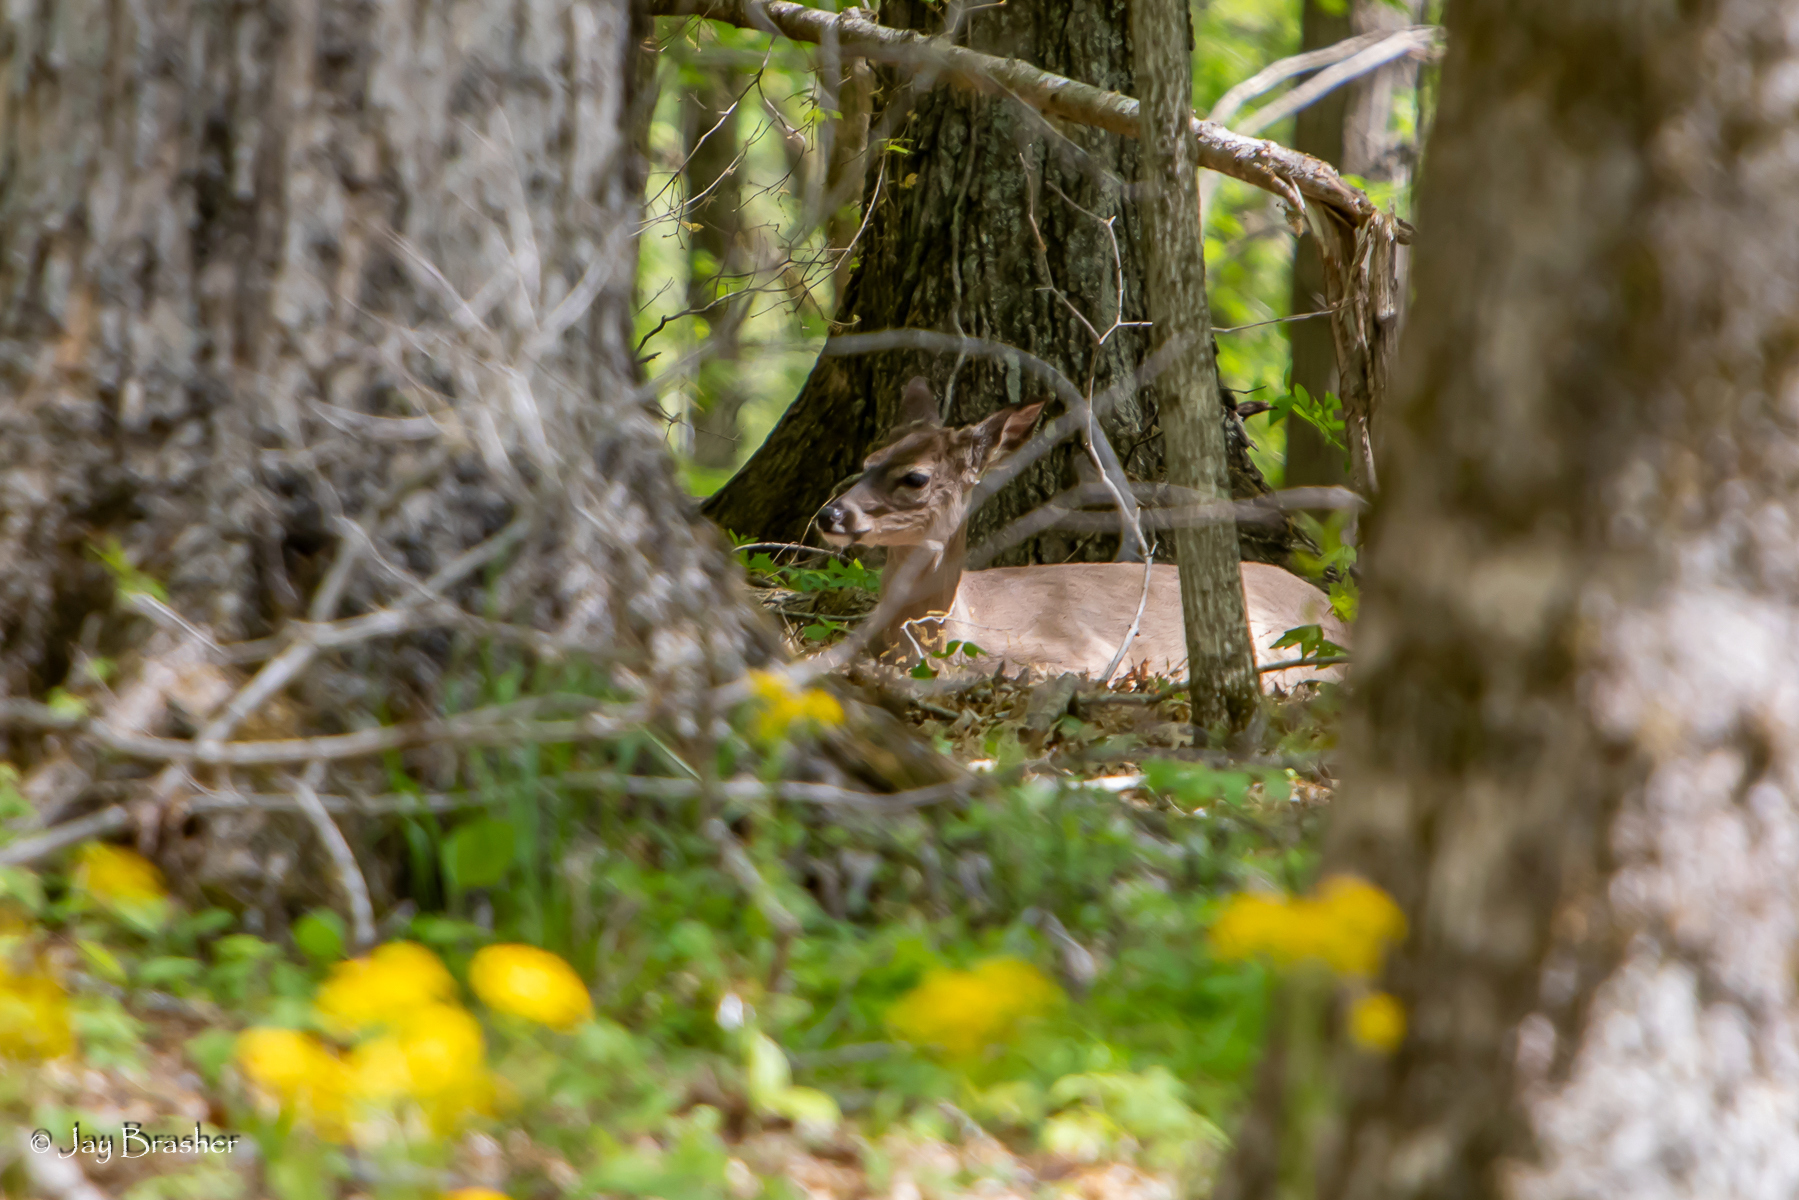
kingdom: Animalia
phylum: Chordata
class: Mammalia
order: Artiodactyla
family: Cervidae
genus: Odocoileus
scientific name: Odocoileus virginianus
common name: White-tailed deer
